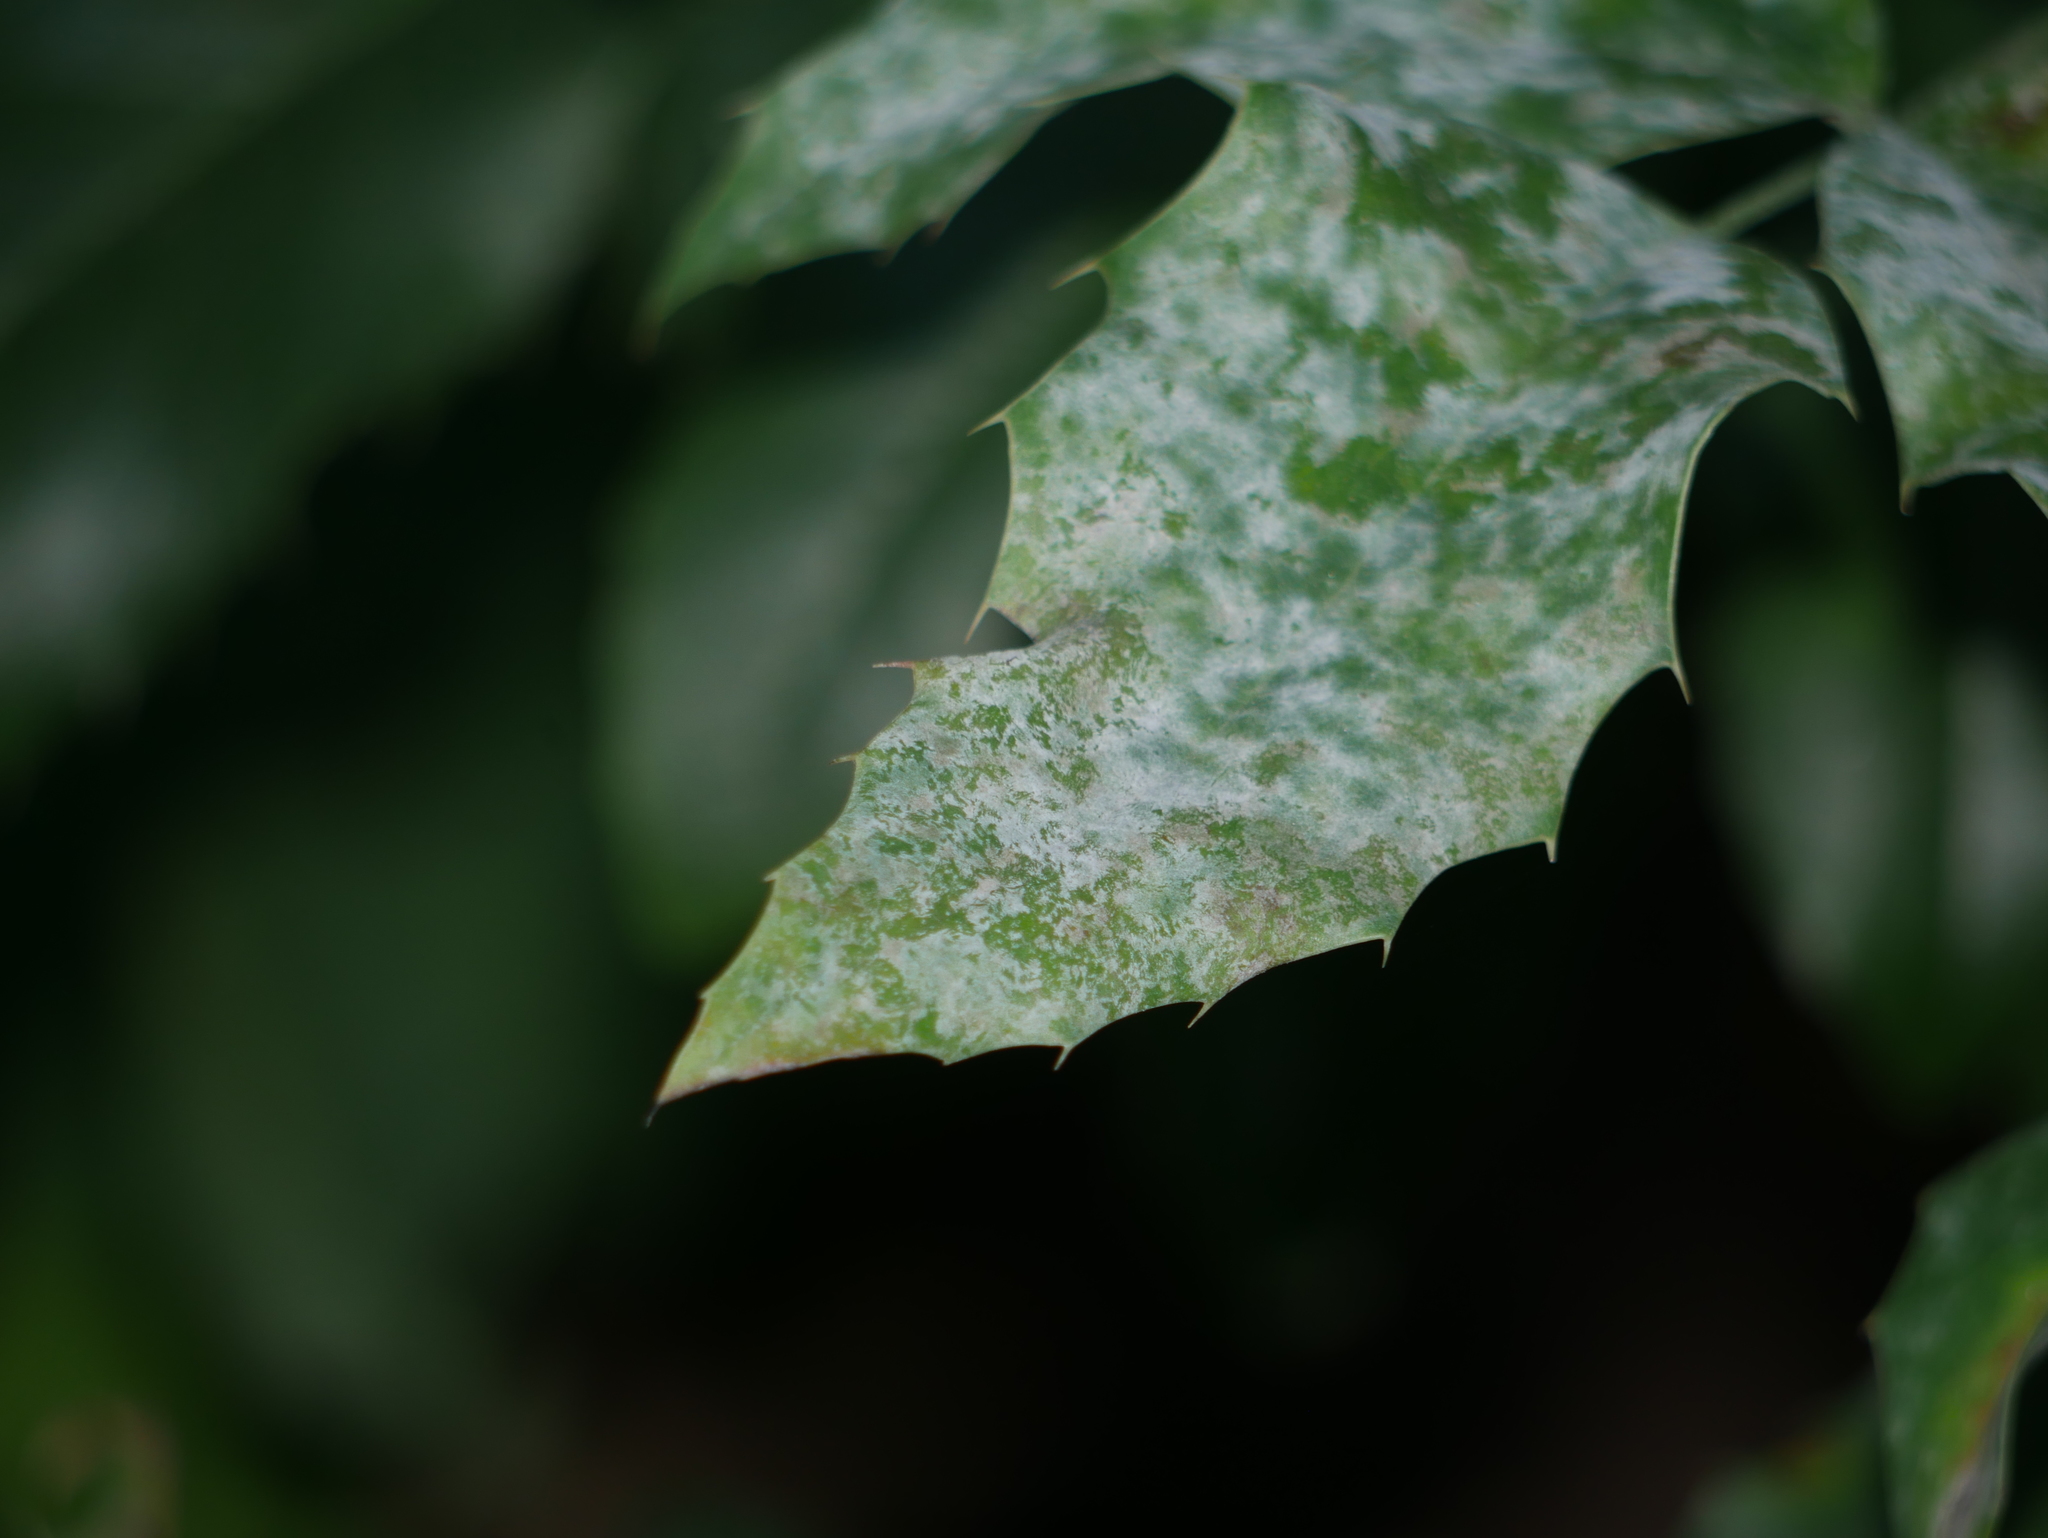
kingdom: Fungi
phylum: Ascomycota
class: Leotiomycetes
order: Helotiales
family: Erysiphaceae
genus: Erysiphe
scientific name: Erysiphe berberidis
